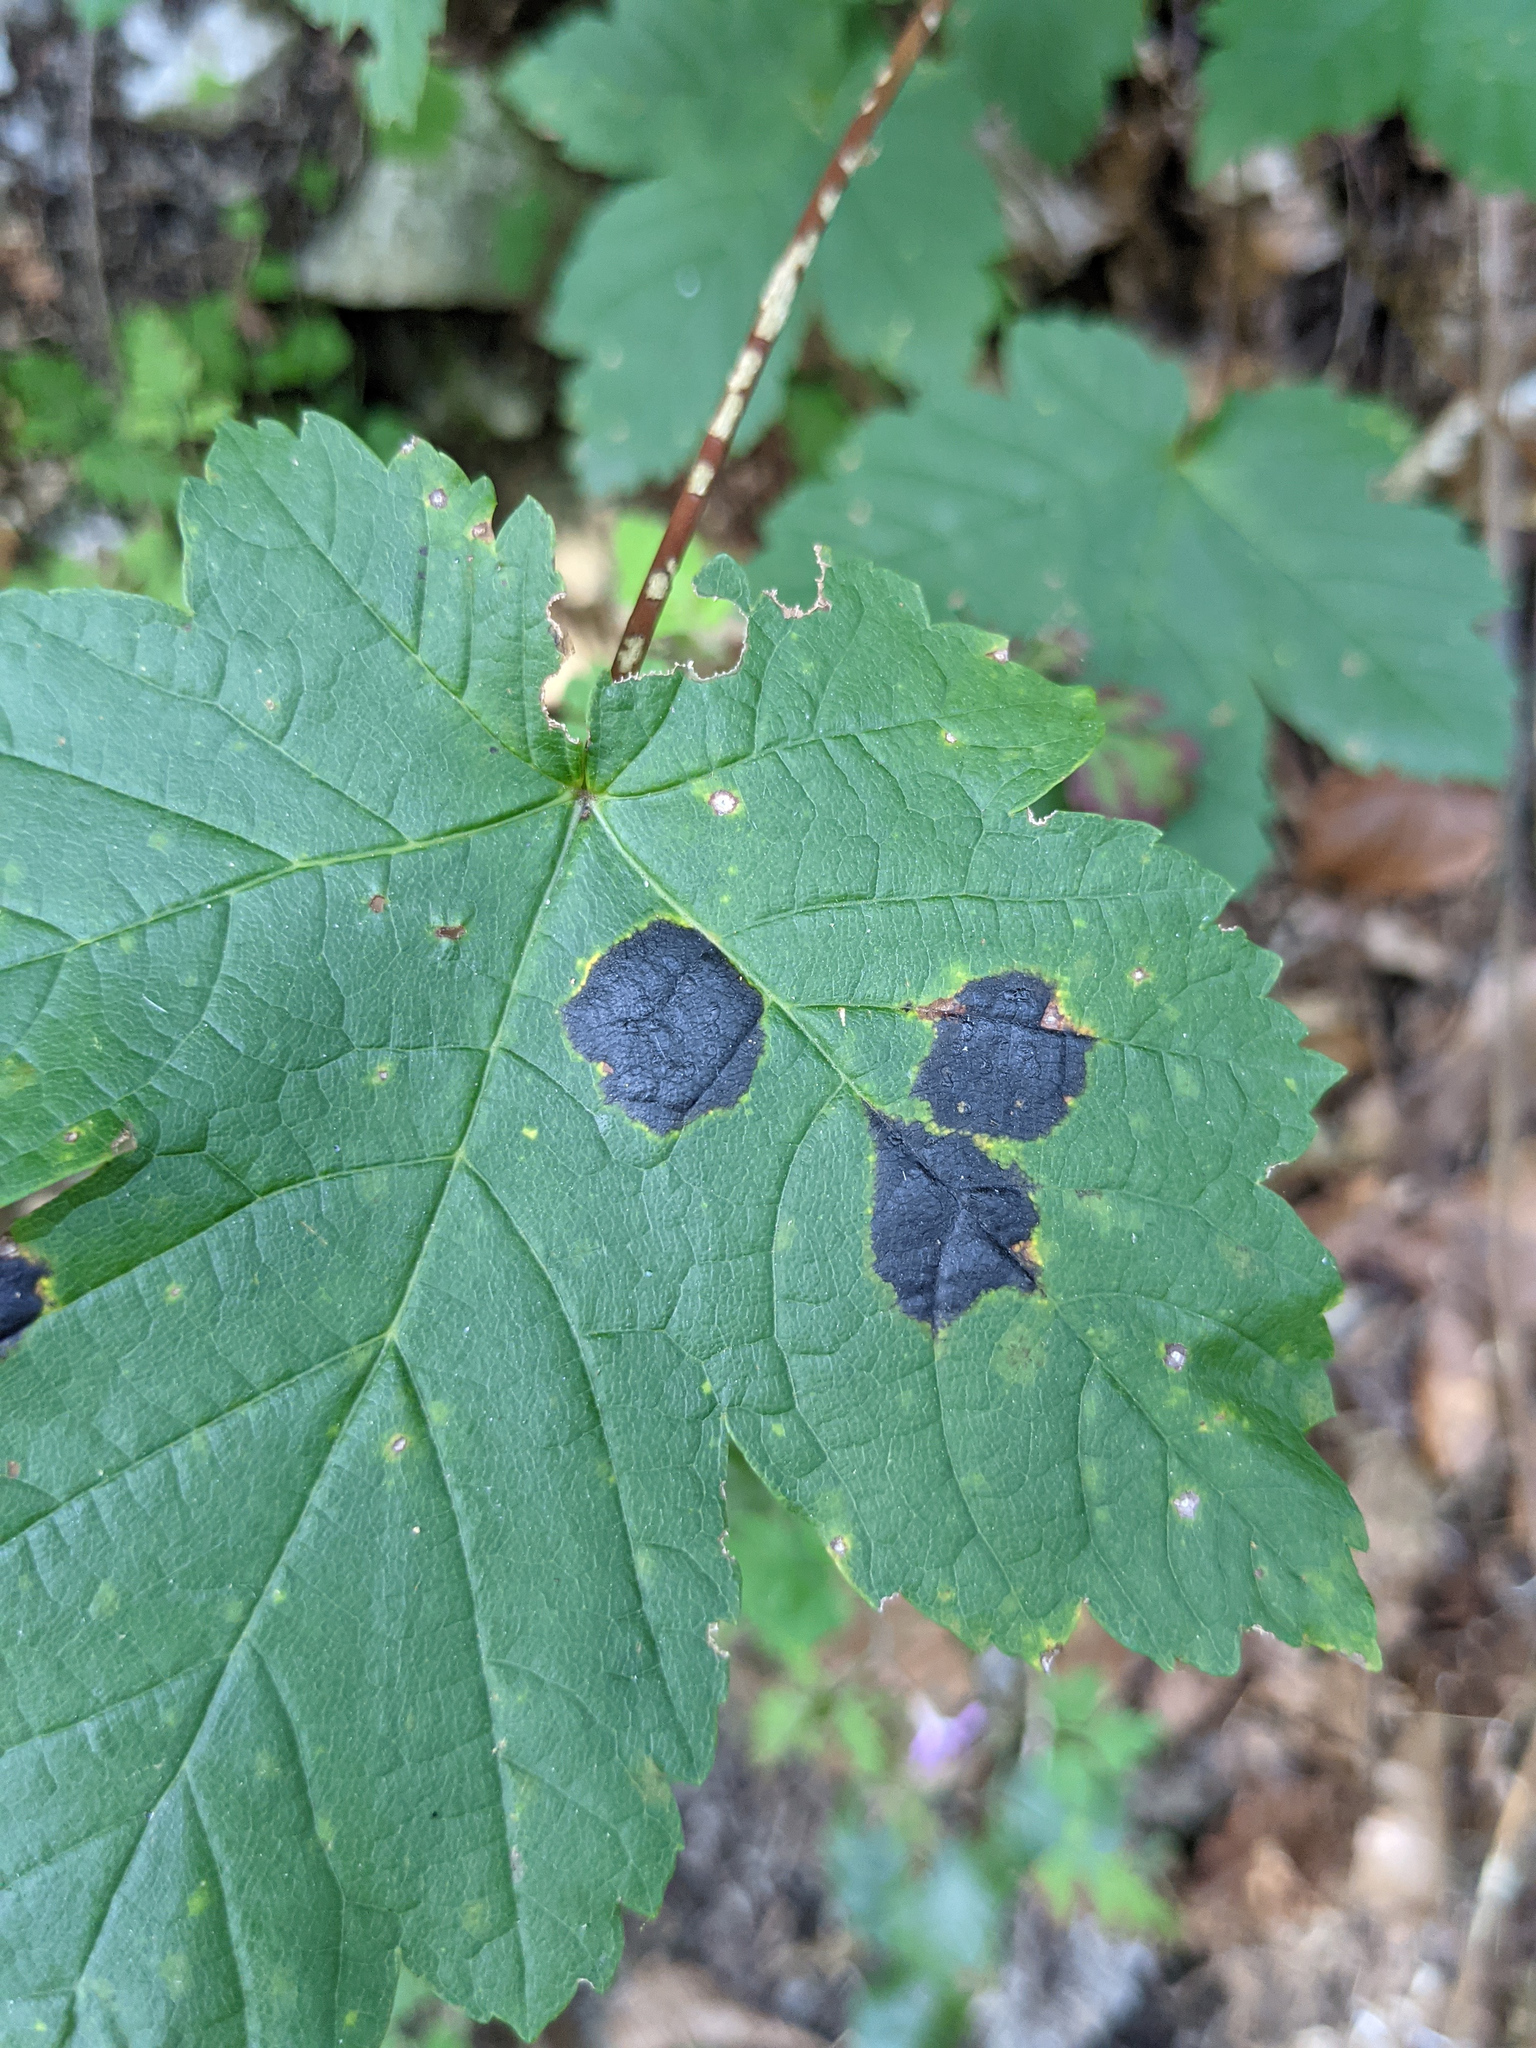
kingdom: Fungi
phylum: Ascomycota
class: Leotiomycetes
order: Rhytismatales
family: Rhytismataceae
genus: Rhytisma
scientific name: Rhytisma acerinum
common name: European tar spot
